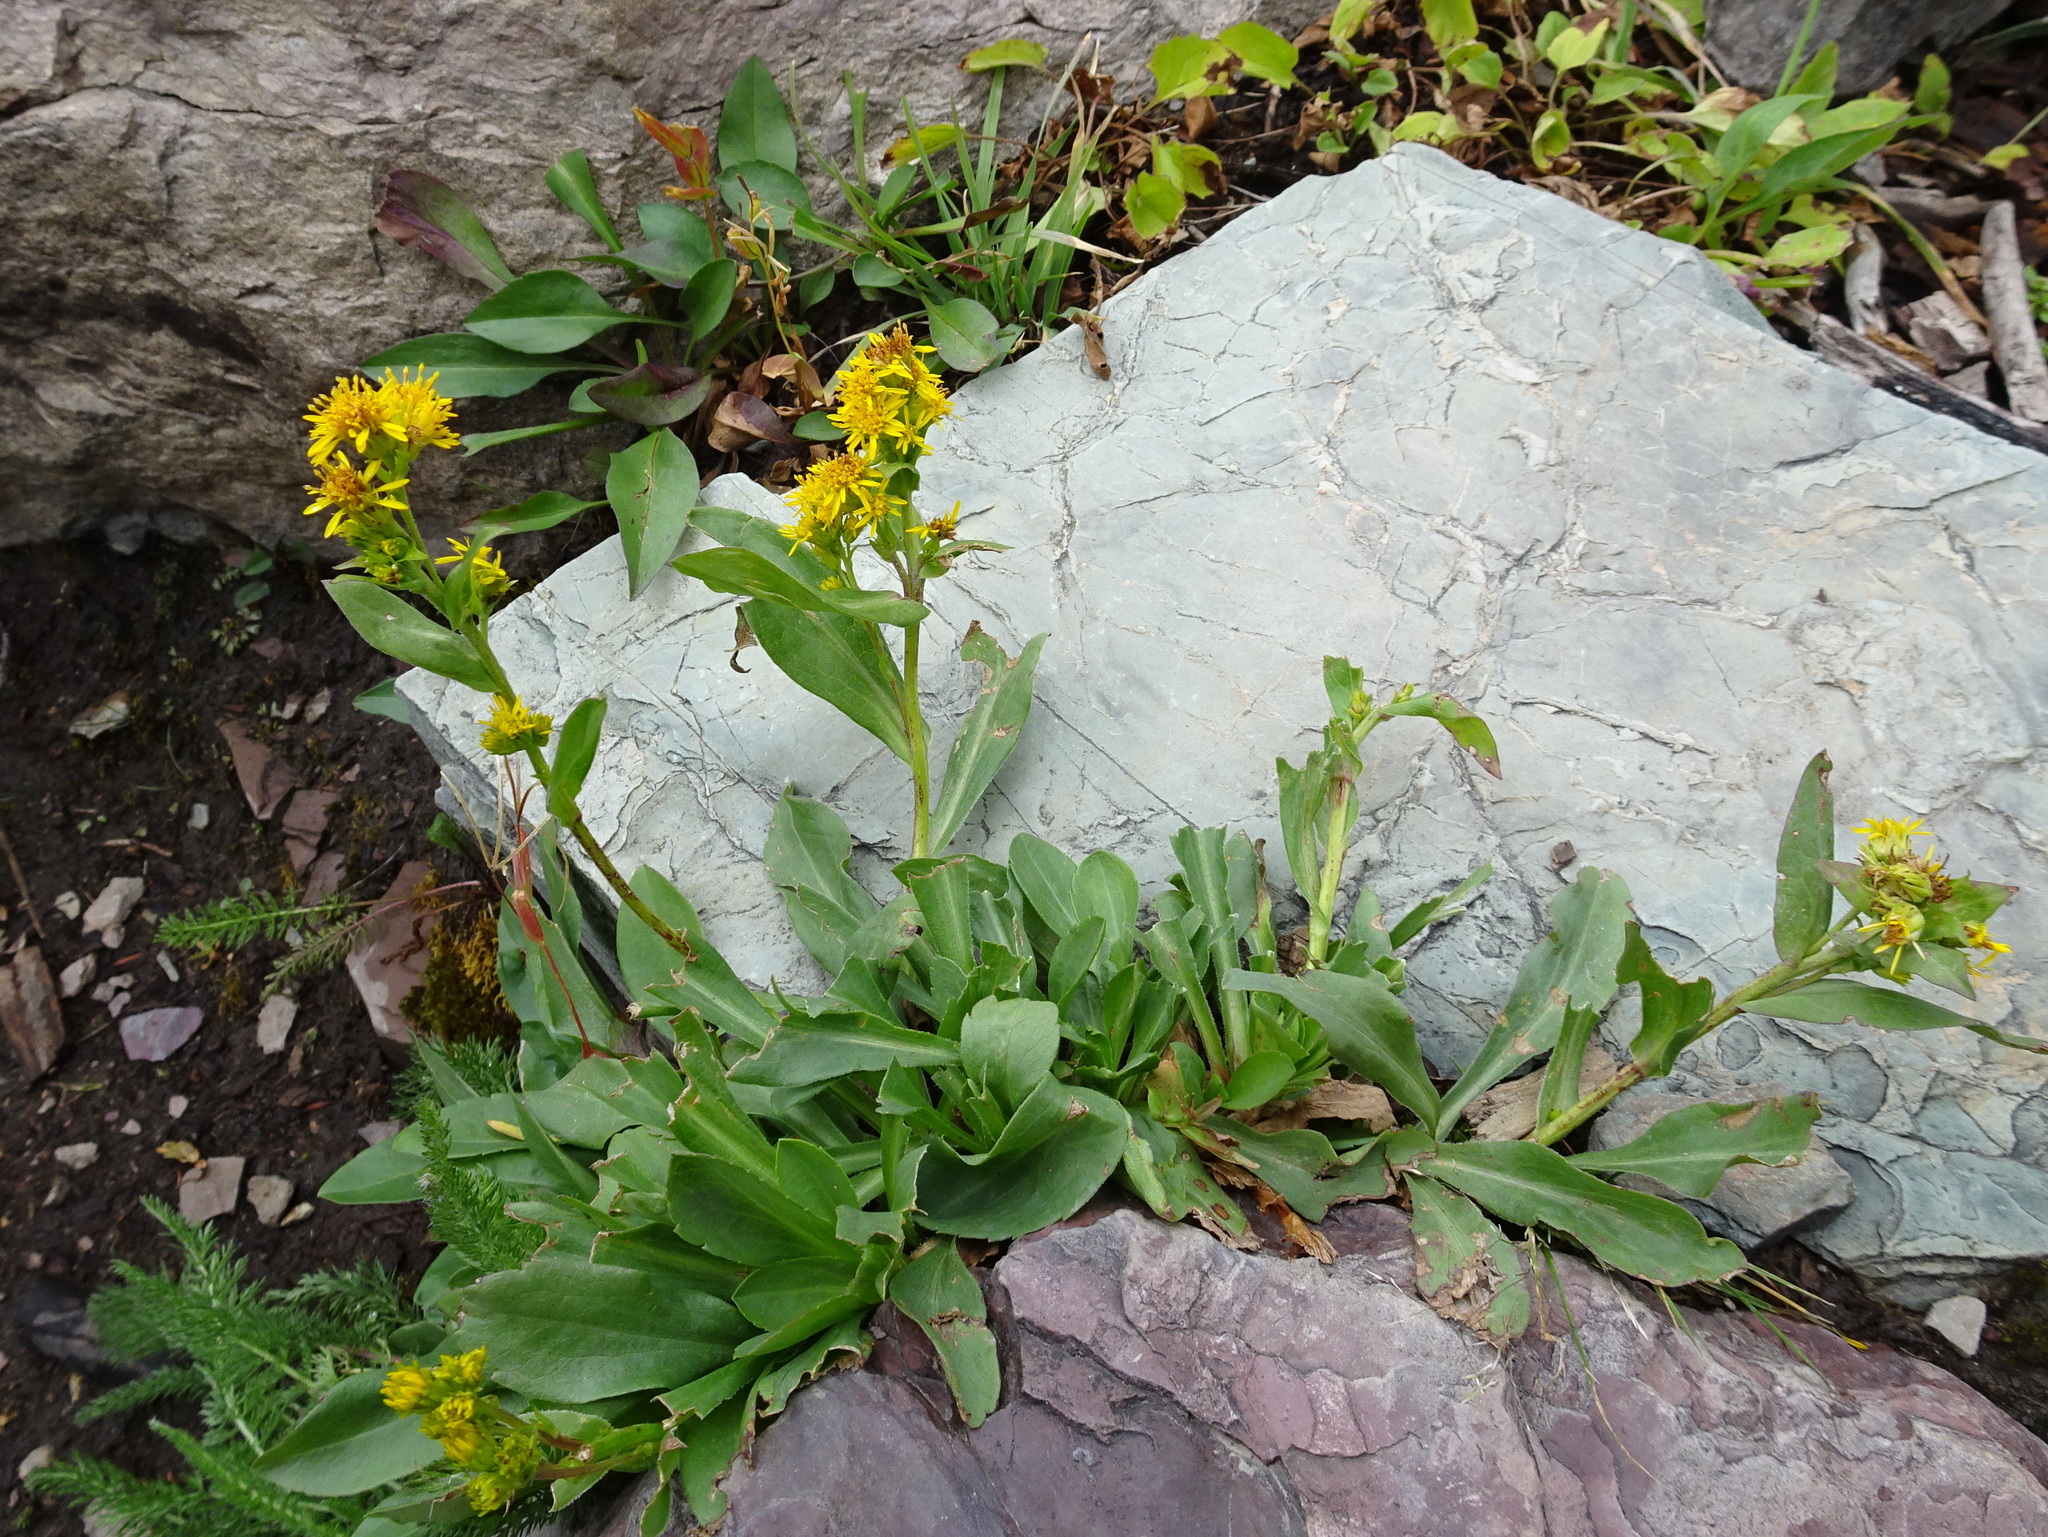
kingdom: Plantae
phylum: Tracheophyta
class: Magnoliopsida
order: Asterales
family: Asteraceae
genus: Solidago
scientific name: Solidago multiradiata
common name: Northern goldenrod
